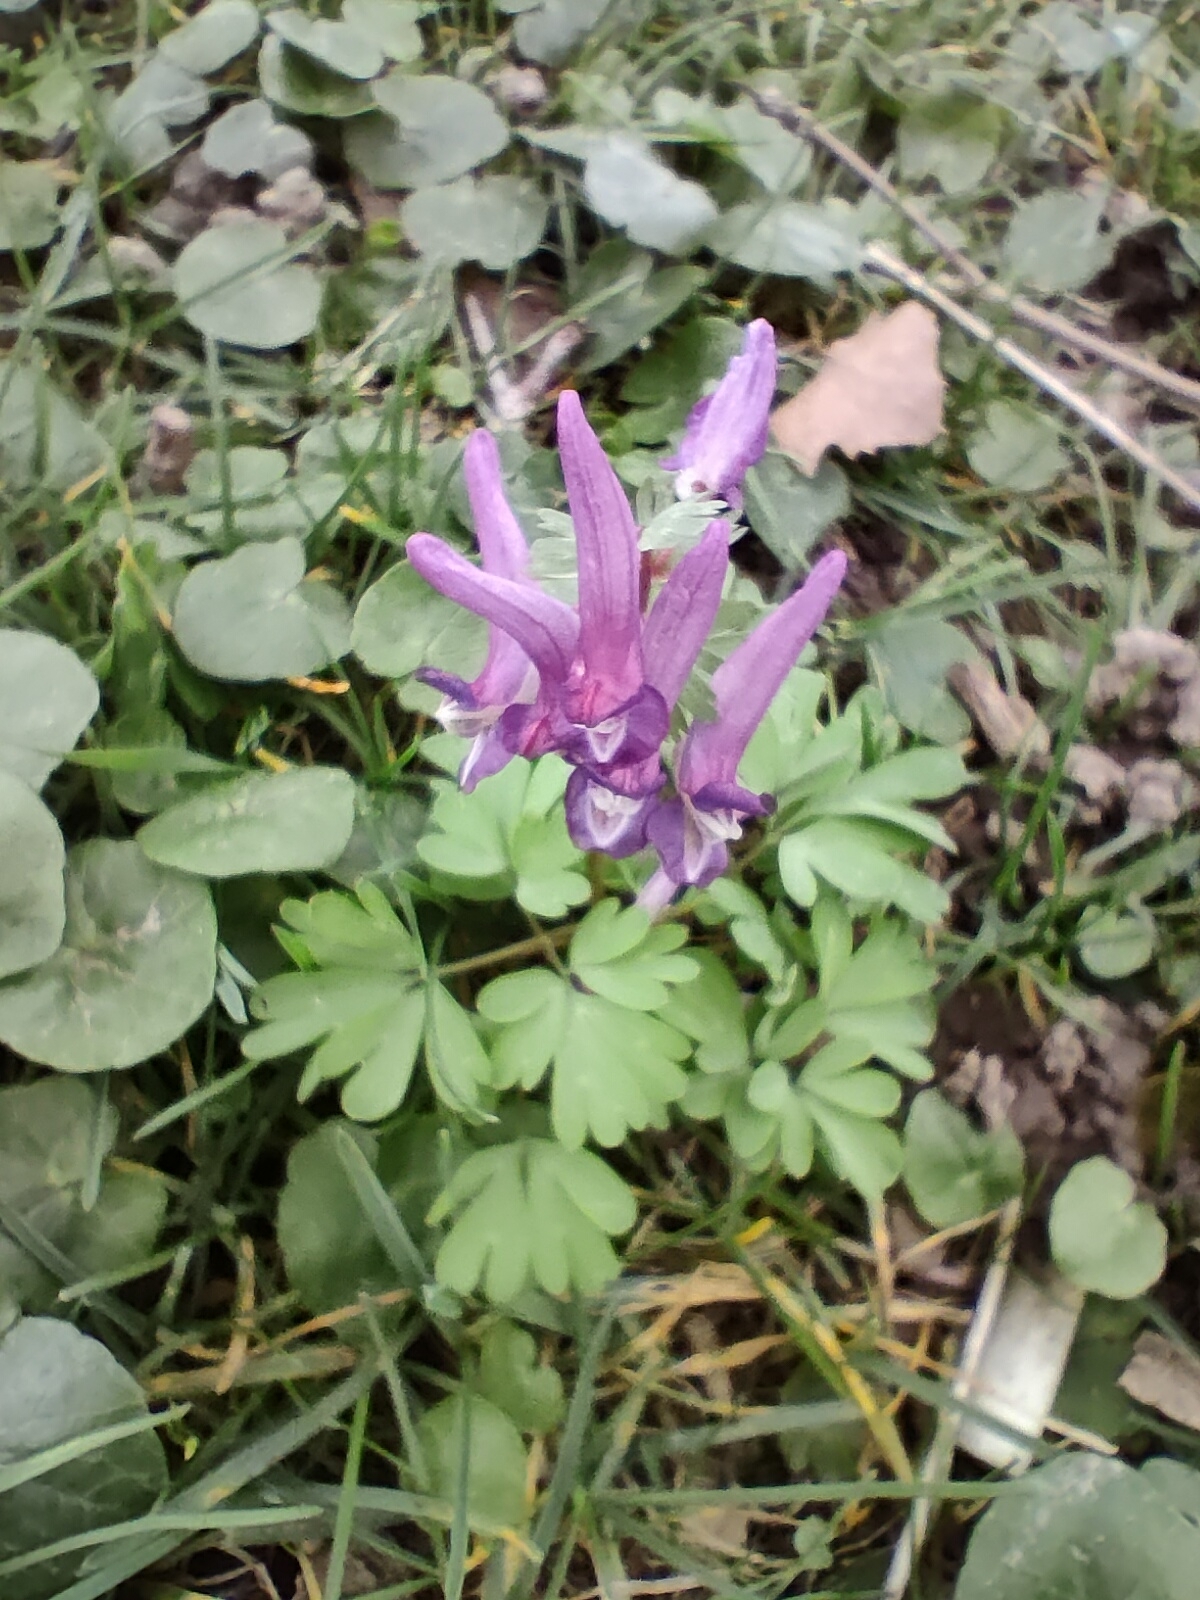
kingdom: Plantae
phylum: Tracheophyta
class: Magnoliopsida
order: Ranunculales
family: Papaveraceae
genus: Corydalis
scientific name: Corydalis solida
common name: Bird-in-a-bush
